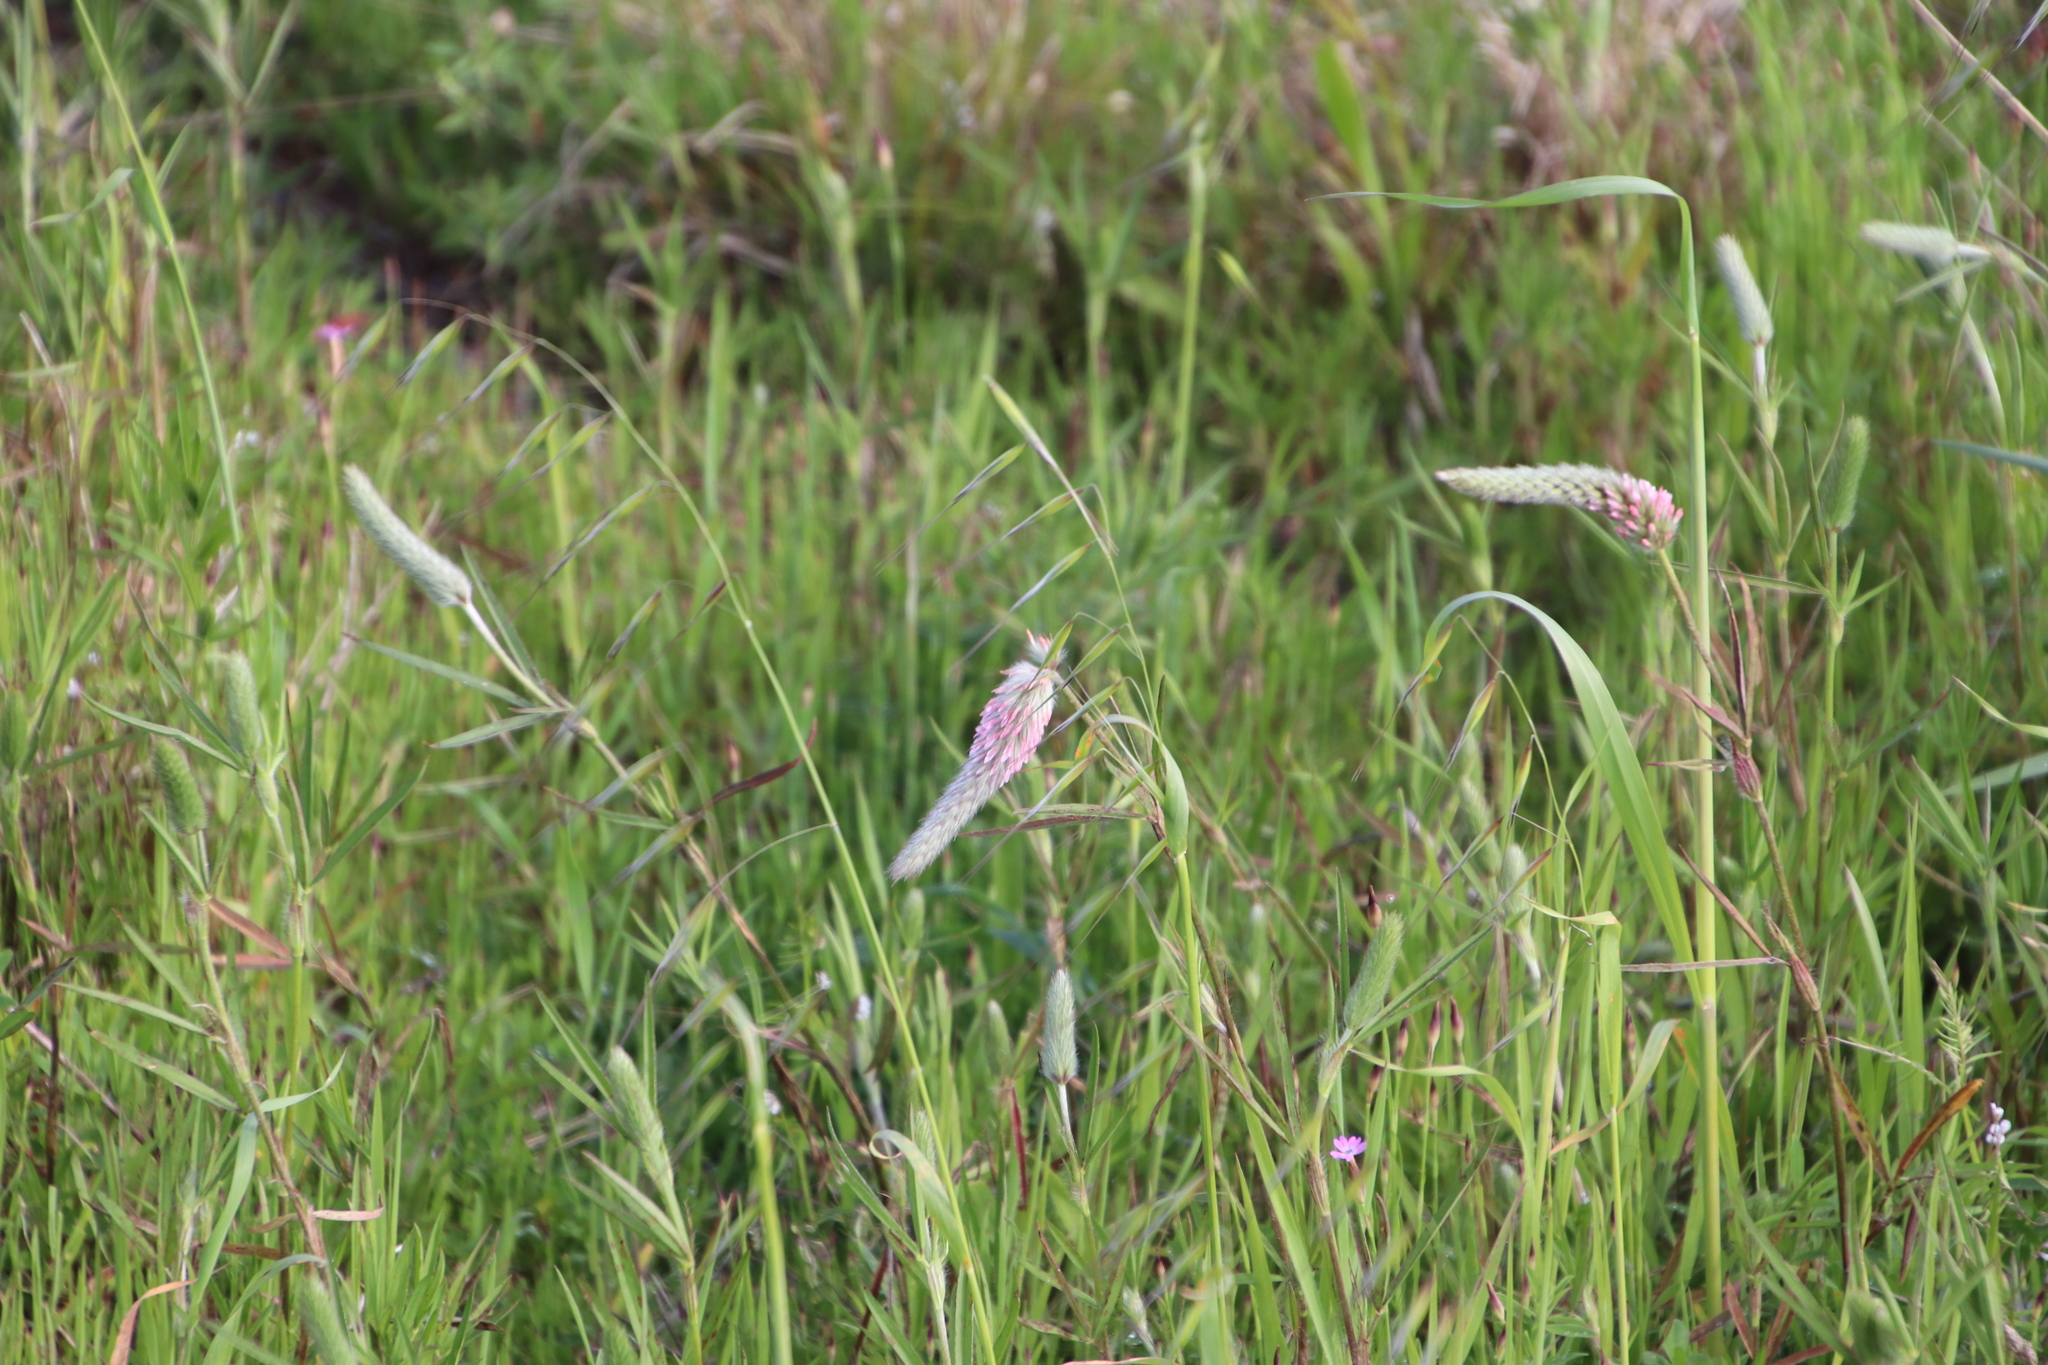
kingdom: Plantae
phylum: Tracheophyta
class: Magnoliopsida
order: Fabales
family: Fabaceae
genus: Trifolium
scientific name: Trifolium angustifolium
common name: Narrow clover
